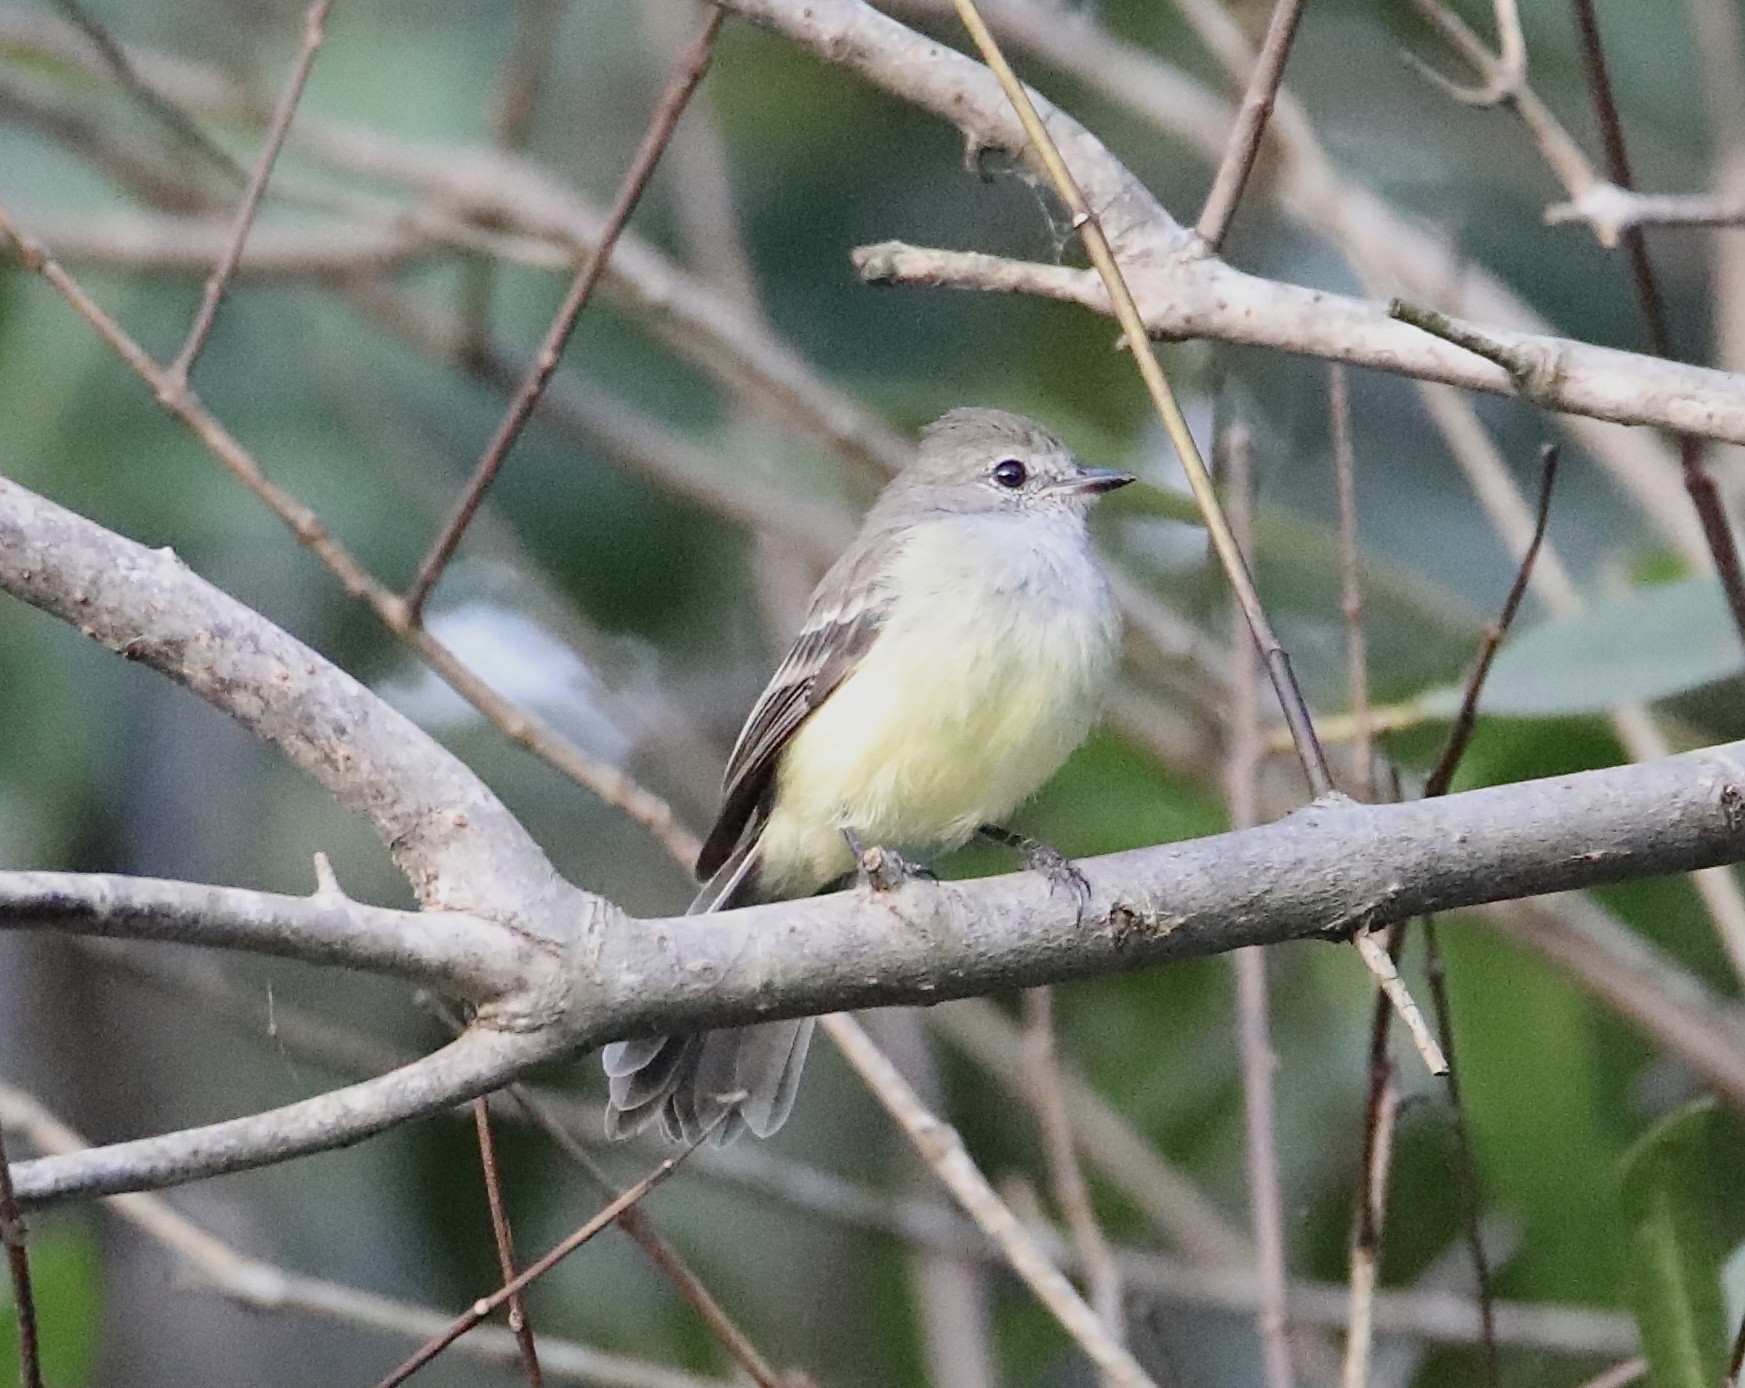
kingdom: Animalia
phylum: Chordata
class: Aves
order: Passeriformes
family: Tyrannidae
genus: Camptostoma
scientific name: Camptostoma obsoletum
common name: Southern beardless-tyrannulet
